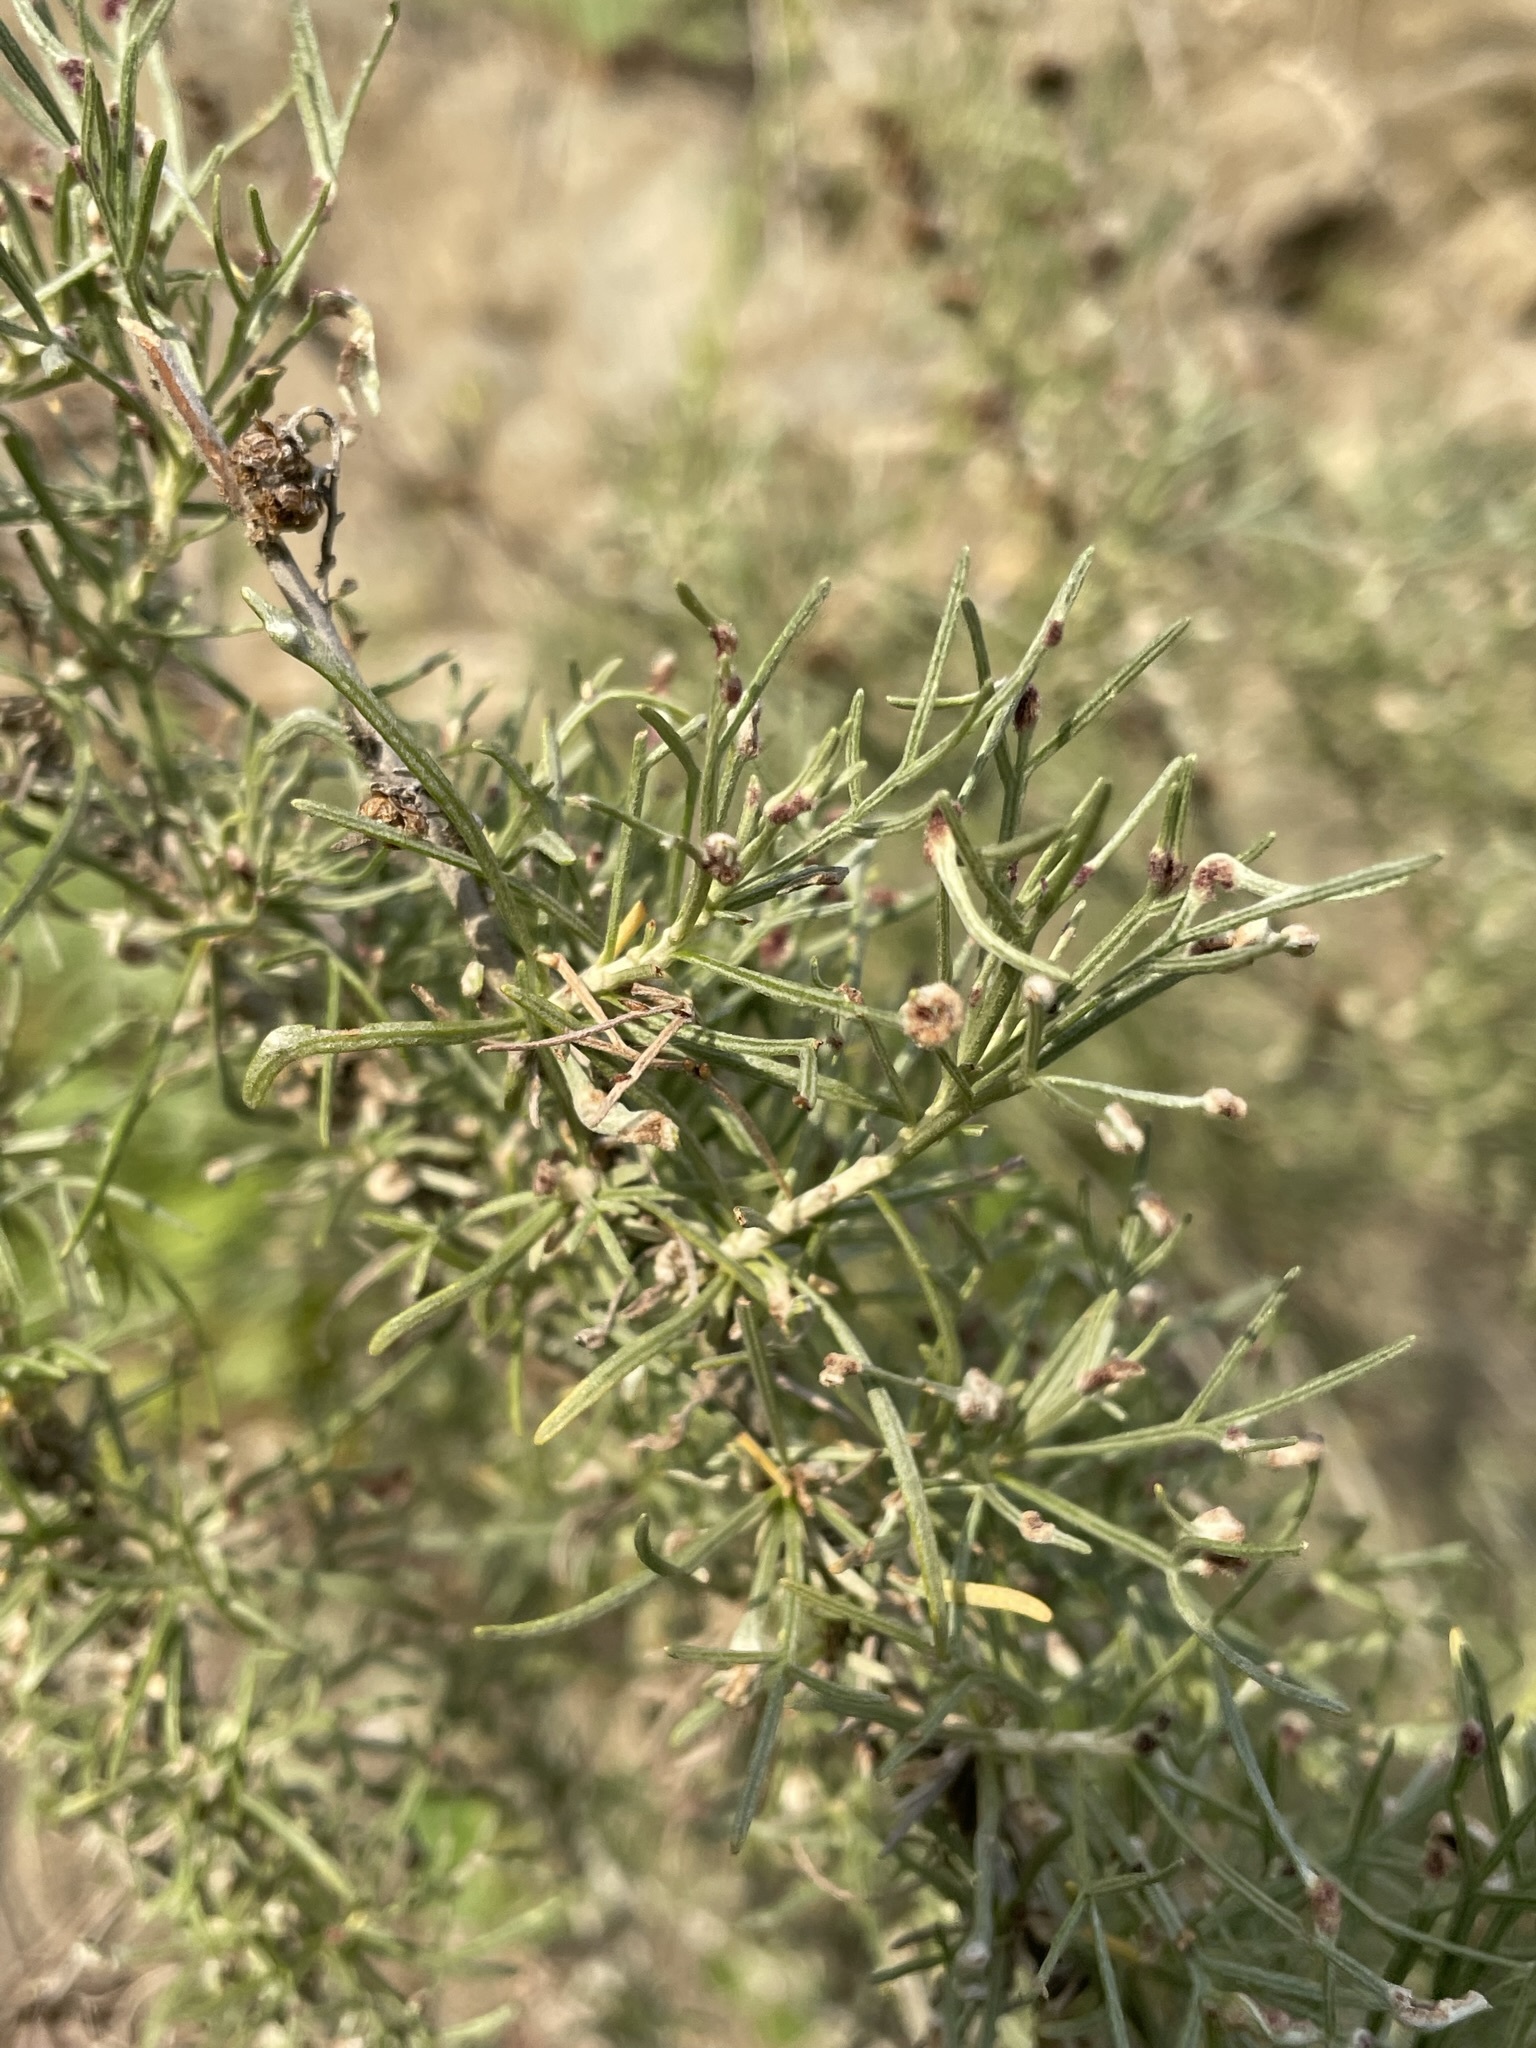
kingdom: Plantae
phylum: Tracheophyta
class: Magnoliopsida
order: Asterales
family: Asteraceae
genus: Artemisia
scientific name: Artemisia californica
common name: California sagebrush
